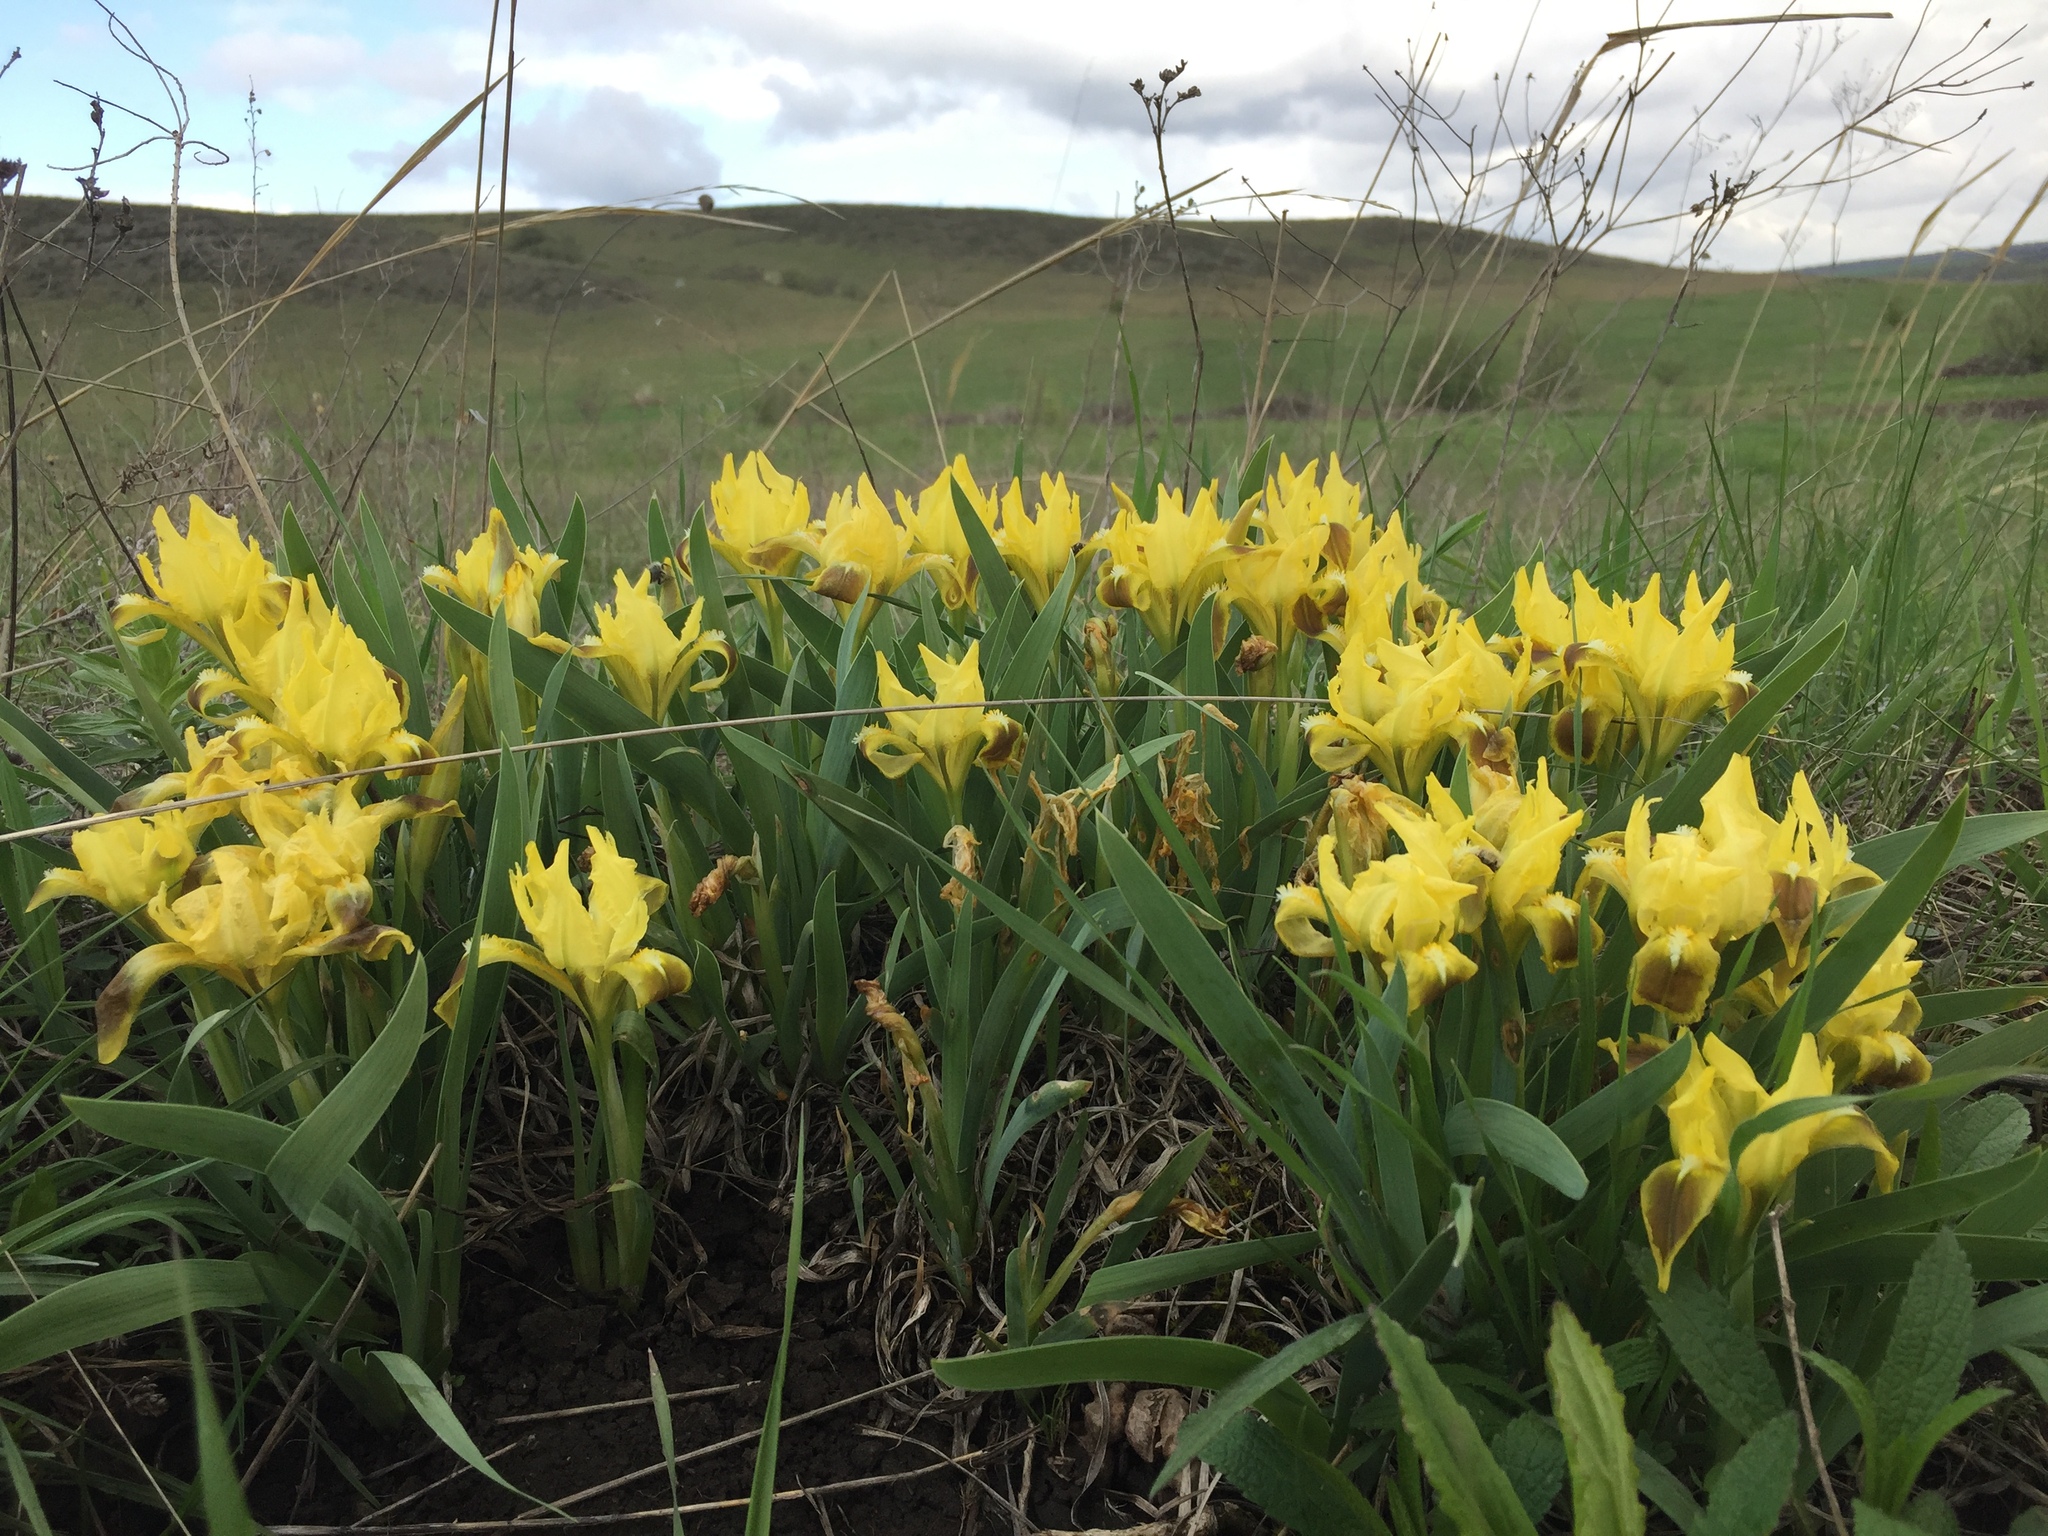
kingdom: Plantae
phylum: Tracheophyta
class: Liliopsida
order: Asparagales
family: Iridaceae
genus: Iris
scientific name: Iris pumila
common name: Dwarf iris
